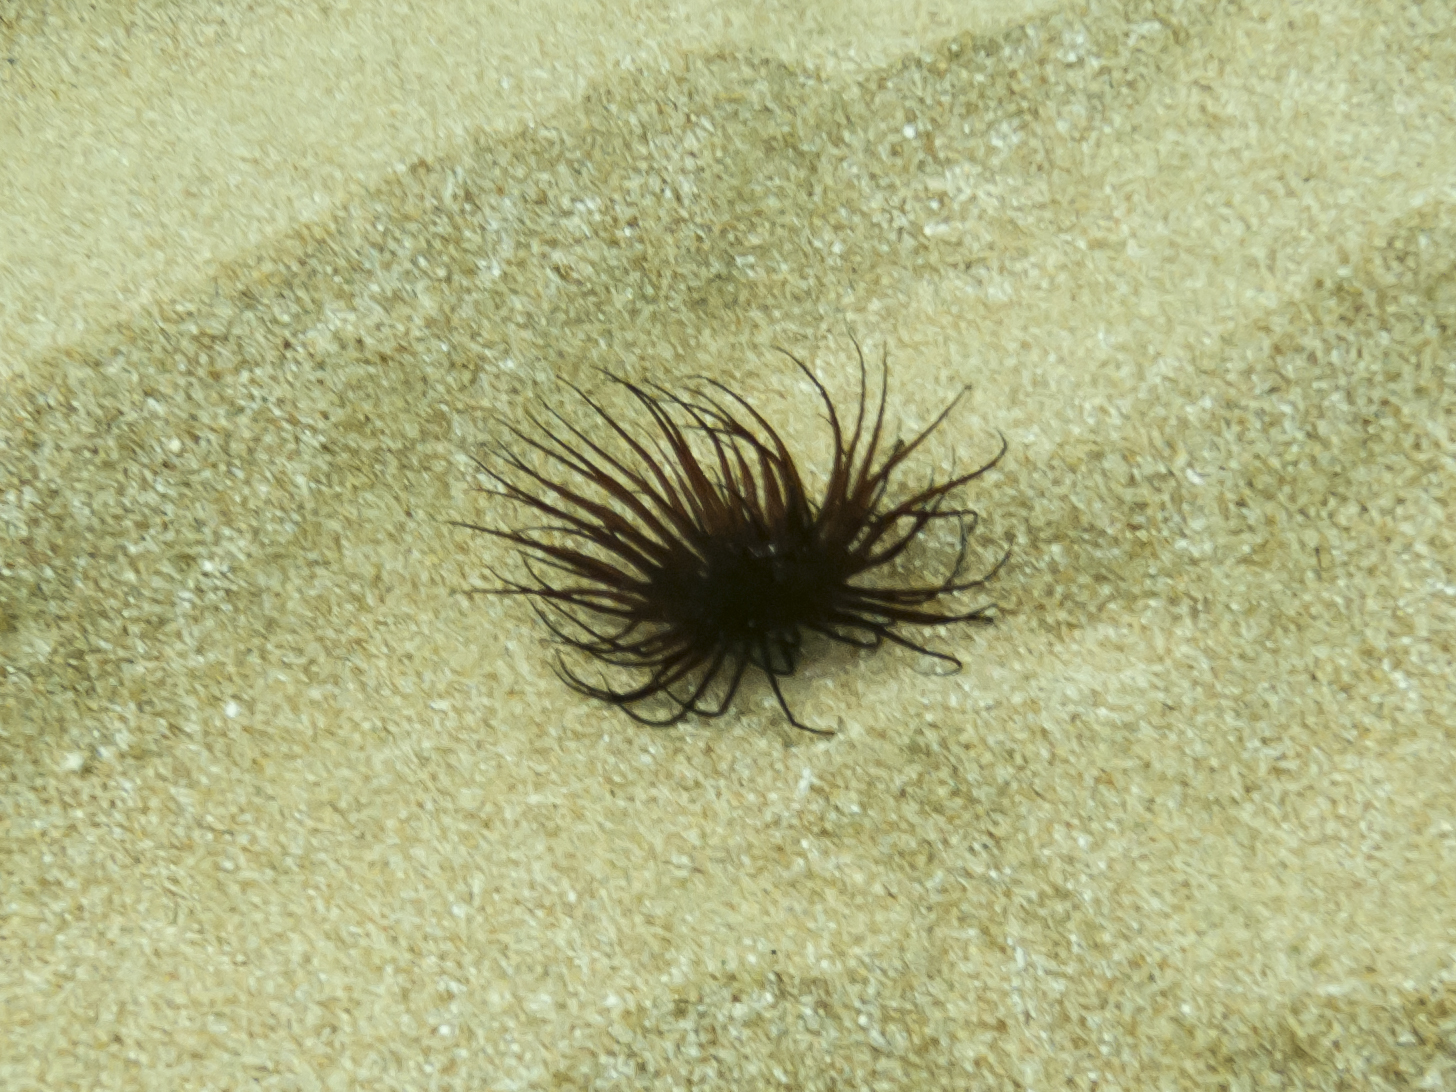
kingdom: Animalia
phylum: Cnidaria
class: Anthozoa
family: Cerianthidae
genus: Pachycerianthus
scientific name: Pachycerianthus solitarius
